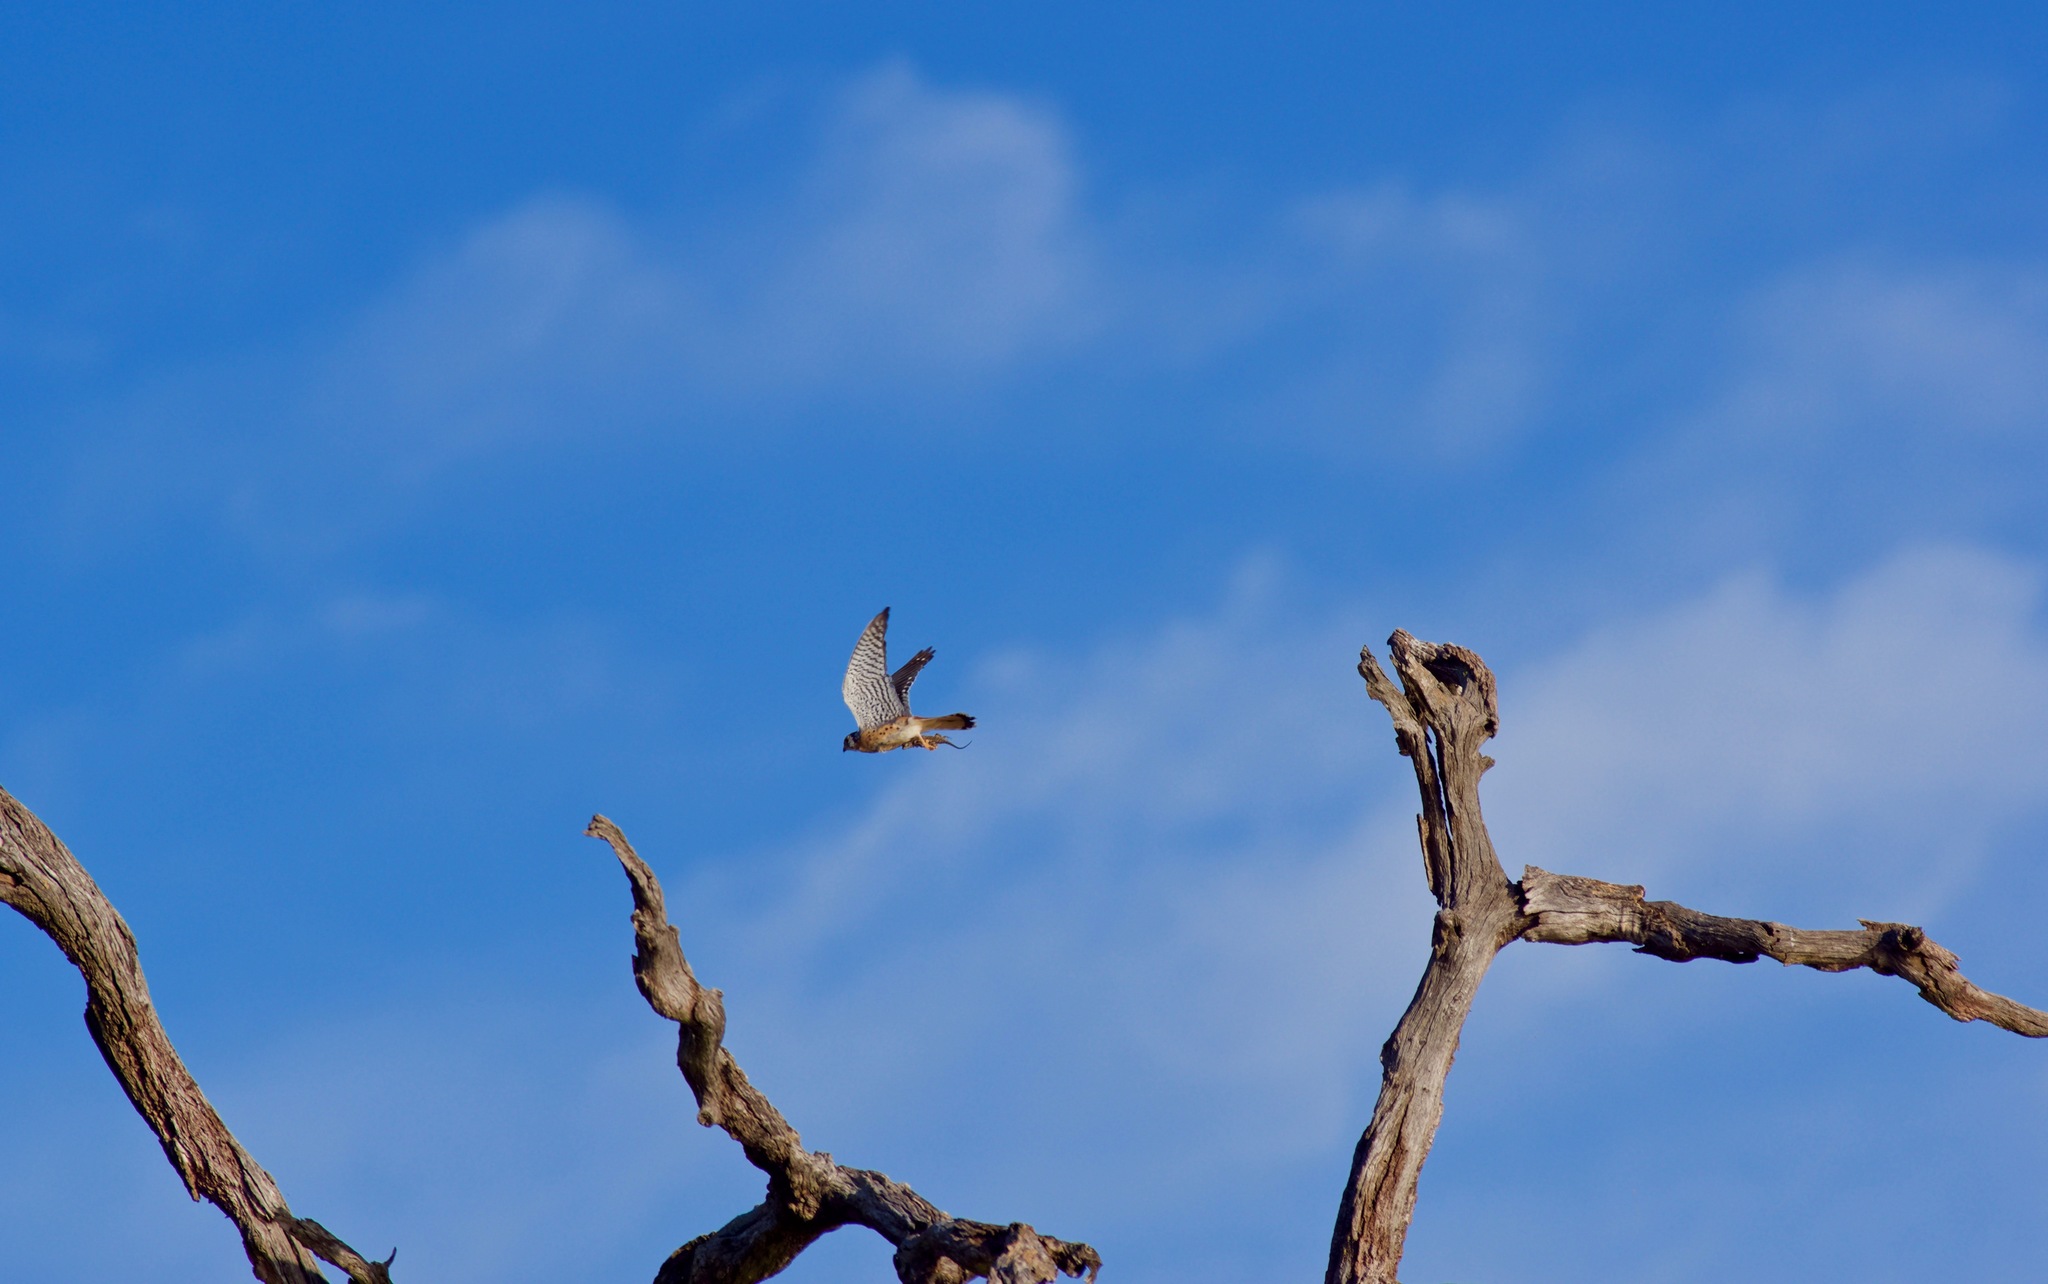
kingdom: Animalia
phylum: Chordata
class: Aves
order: Falconiformes
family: Falconidae
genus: Falco
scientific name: Falco sparverius
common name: American kestrel
